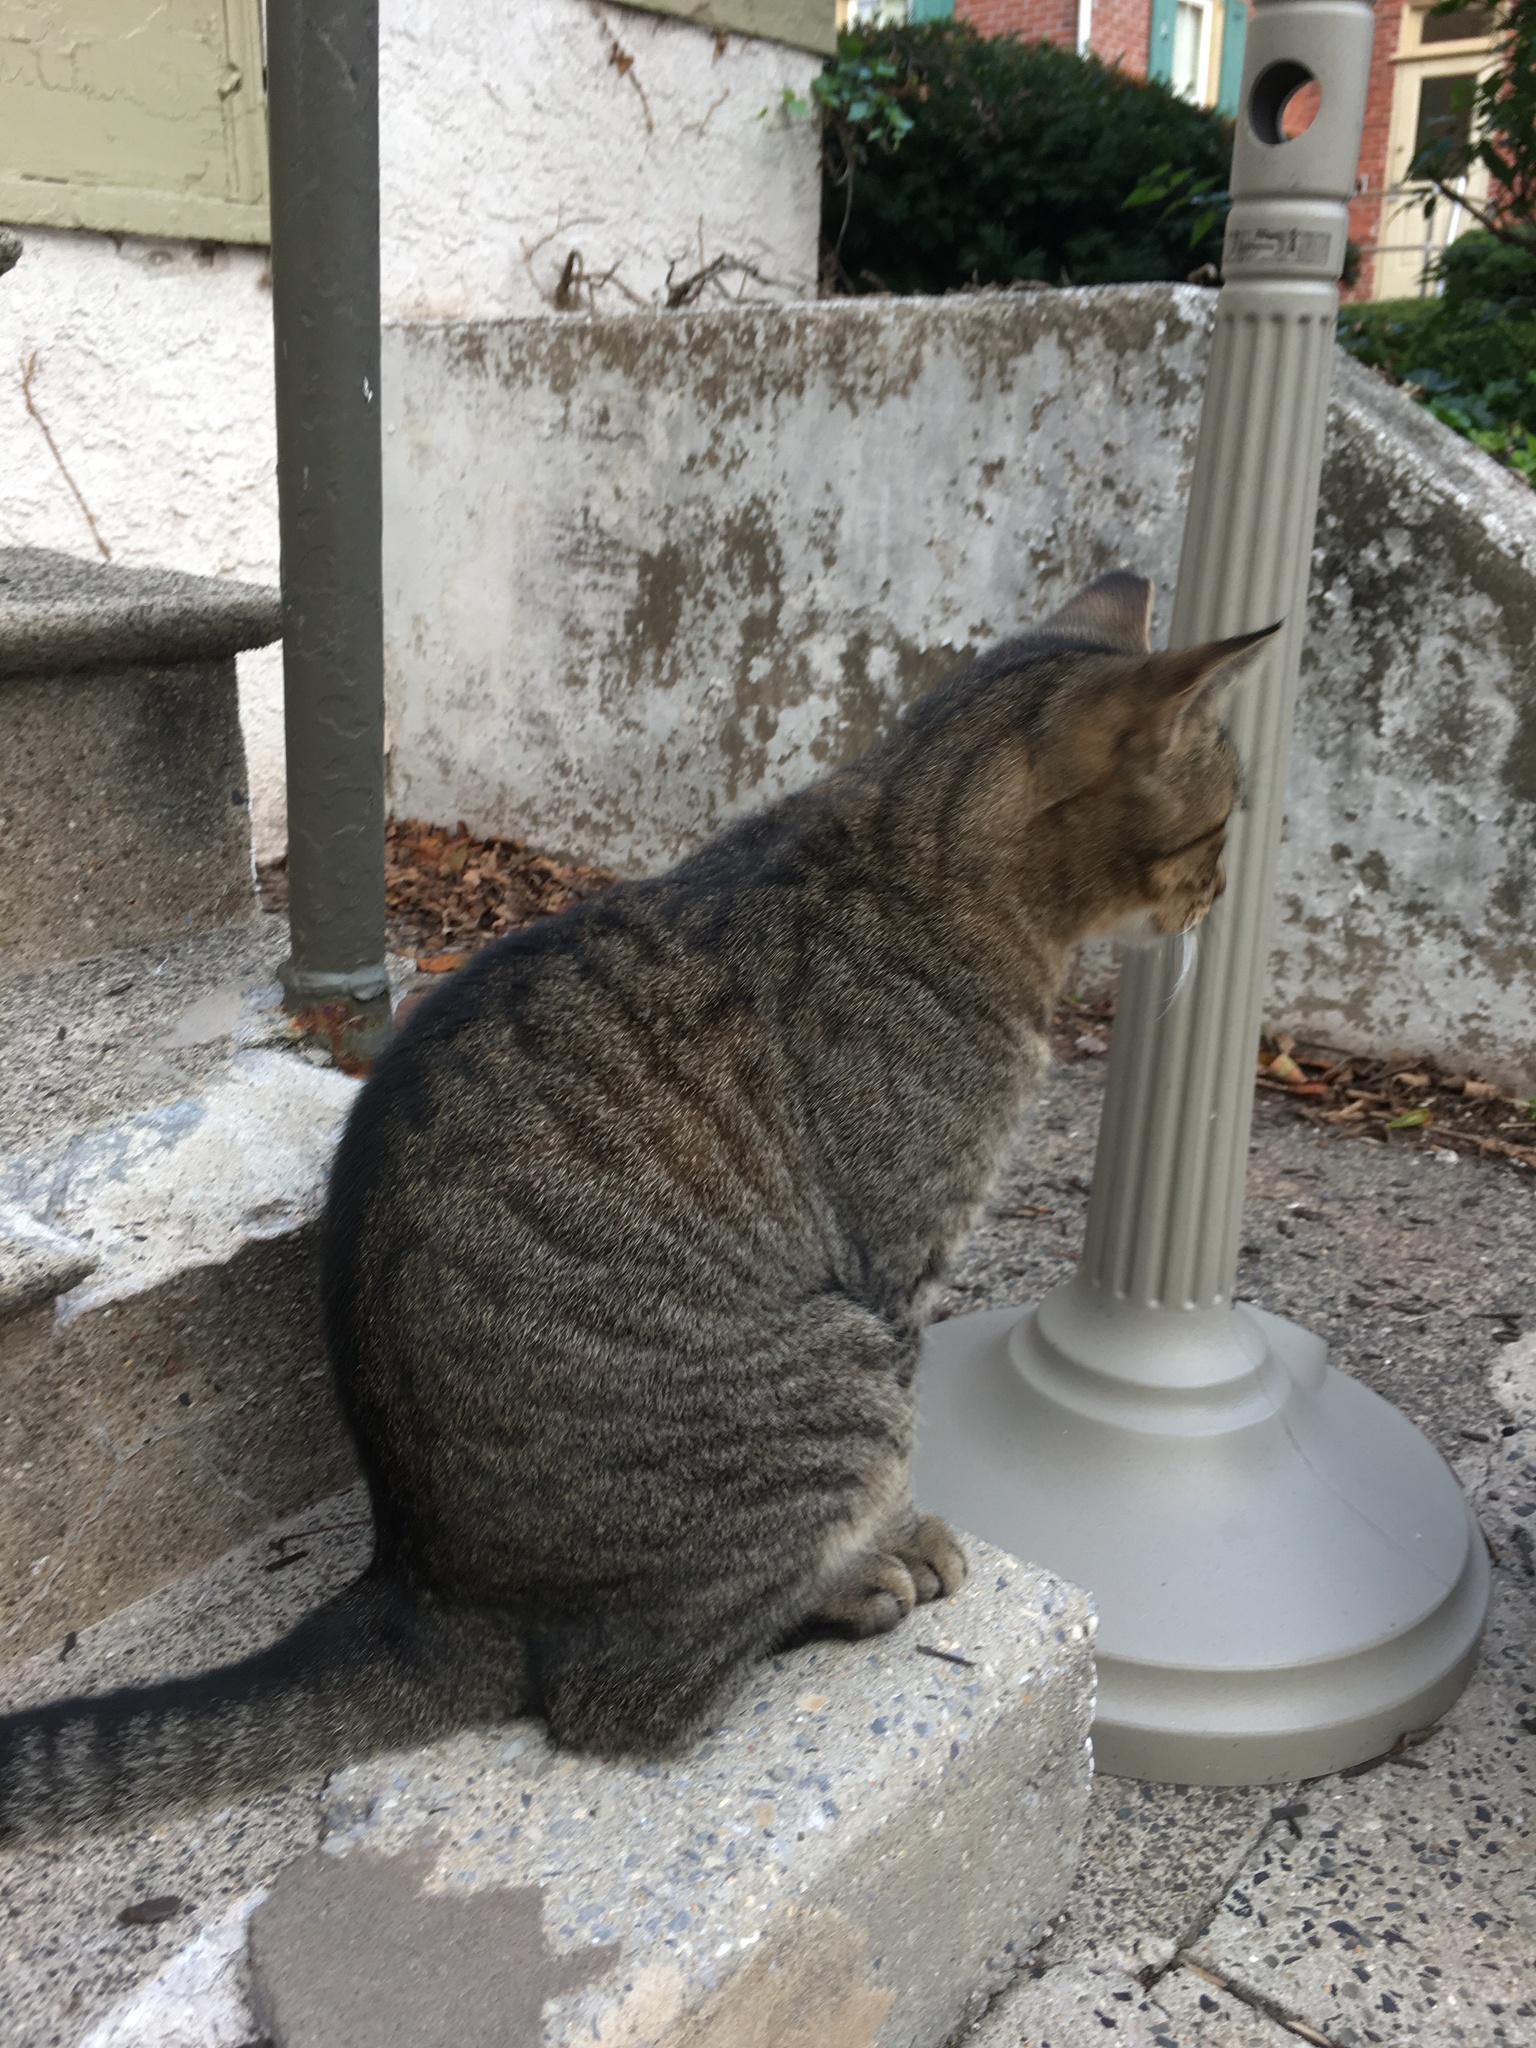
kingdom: Animalia
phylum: Chordata
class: Mammalia
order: Carnivora
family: Felidae
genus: Felis
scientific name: Felis catus
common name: Domestic cat
